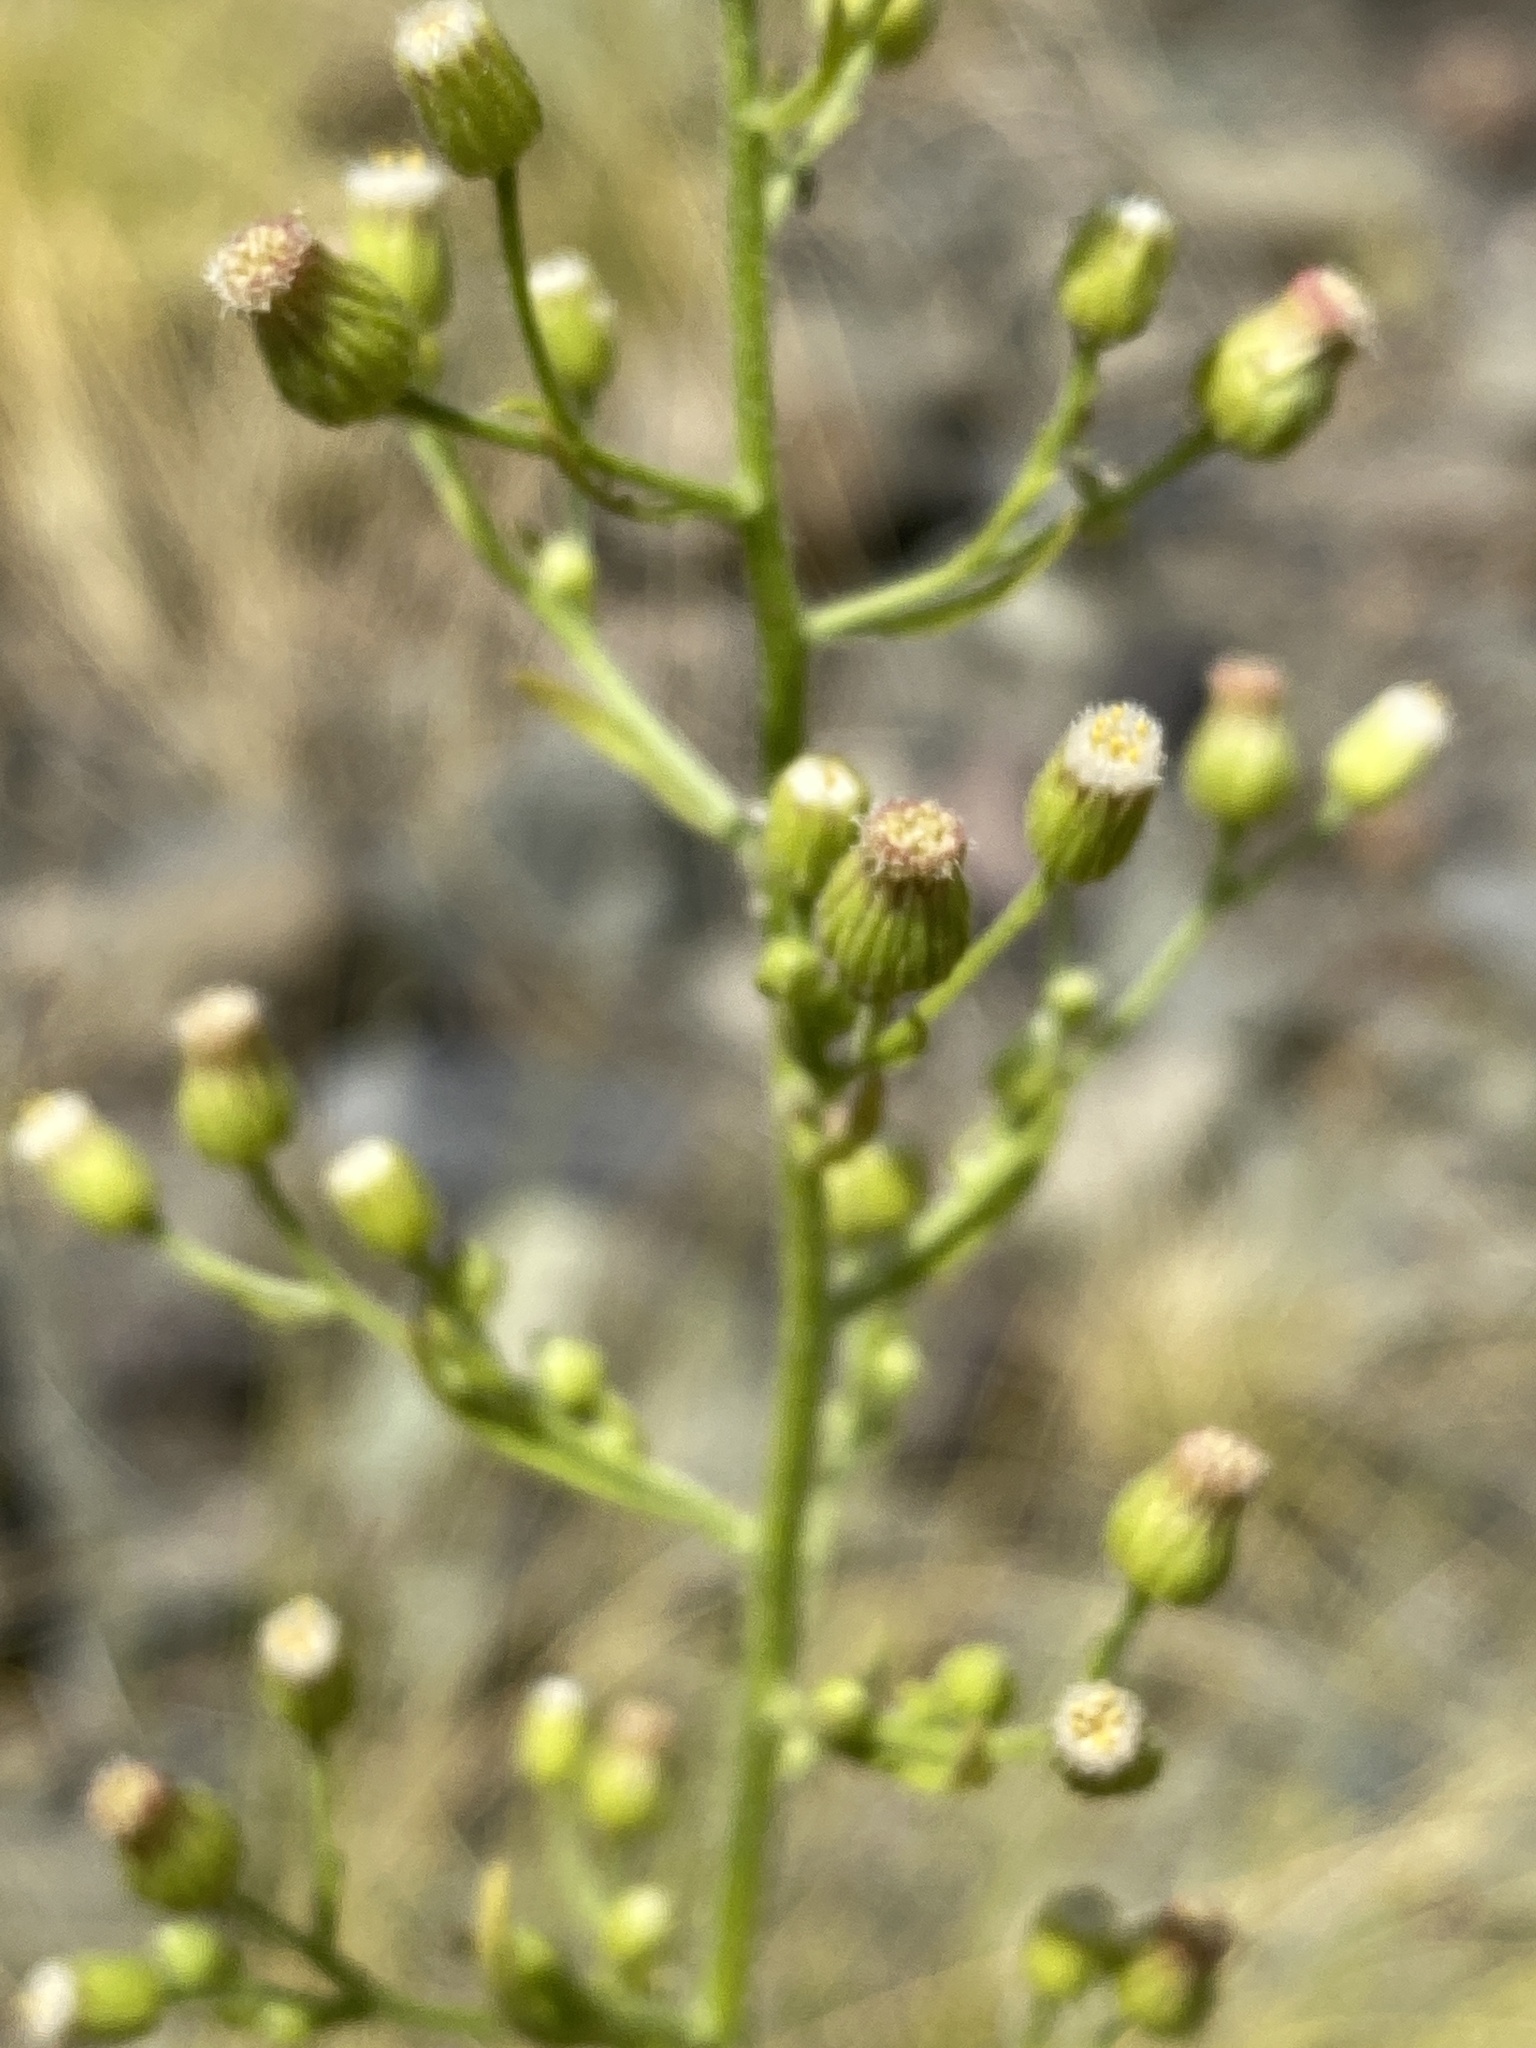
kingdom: Plantae
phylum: Tracheophyta
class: Magnoliopsida
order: Asterales
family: Asteraceae
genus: Erigeron
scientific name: Erigeron bonariensis
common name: Argentine fleabane
